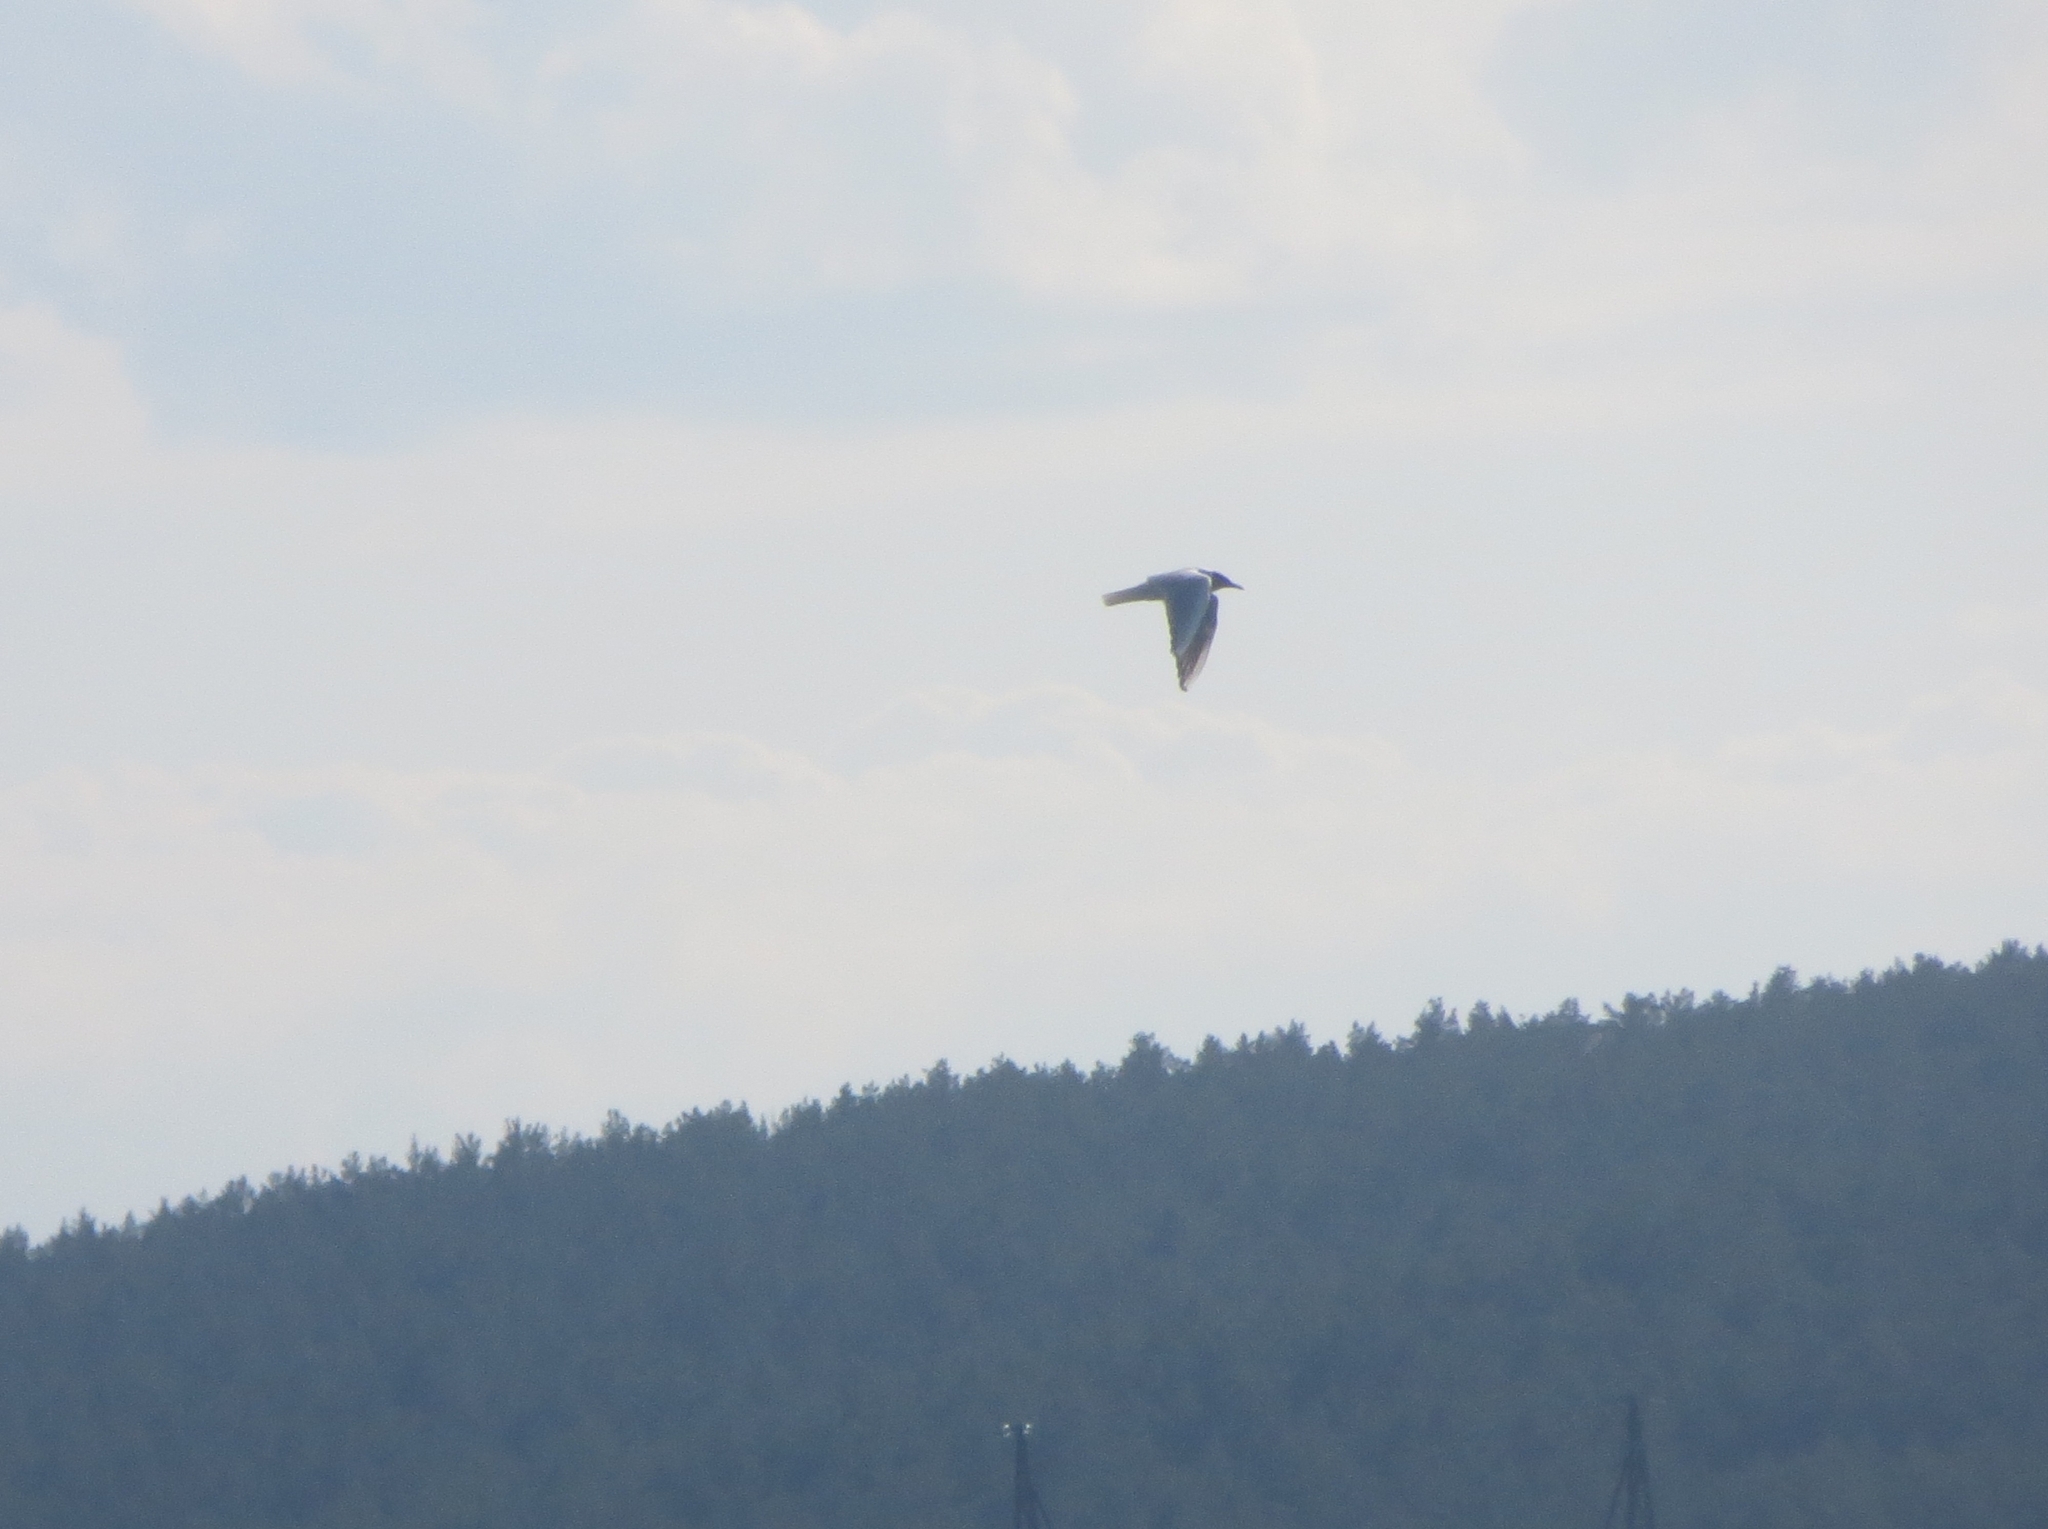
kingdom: Animalia
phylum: Chordata
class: Aves
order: Charadriiformes
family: Laridae
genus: Chroicocephalus
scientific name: Chroicocephalus ridibundus
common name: Black-headed gull
